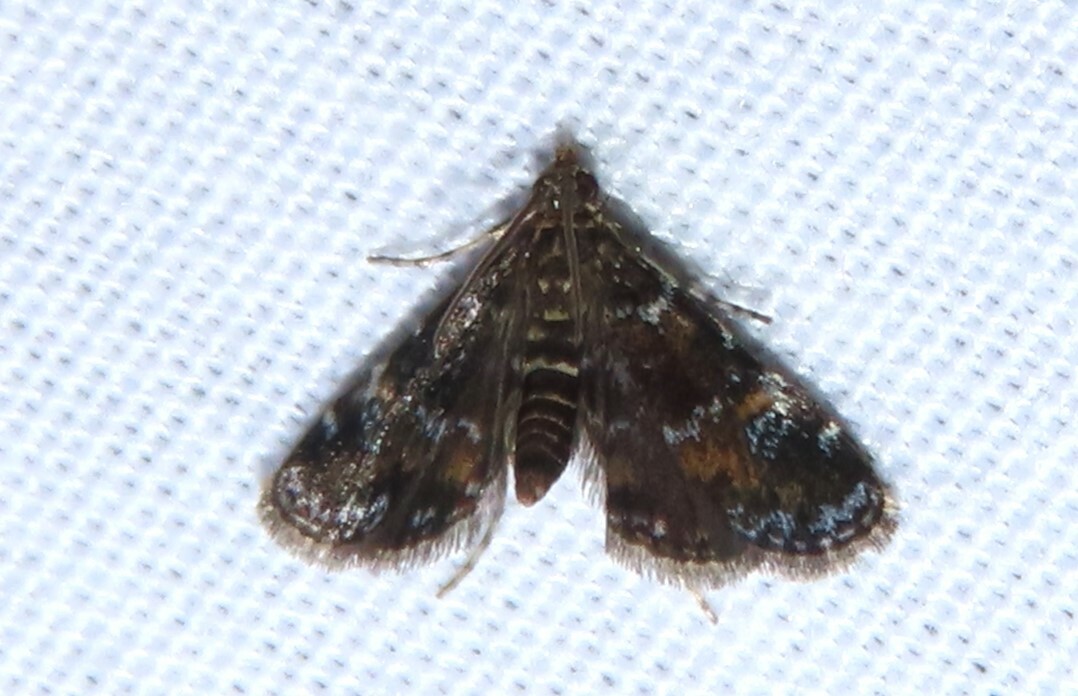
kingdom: Animalia
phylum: Arthropoda
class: Insecta
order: Lepidoptera
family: Crambidae
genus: Elophila
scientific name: Elophila obliteralis
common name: Waterlily leafcutter moth
